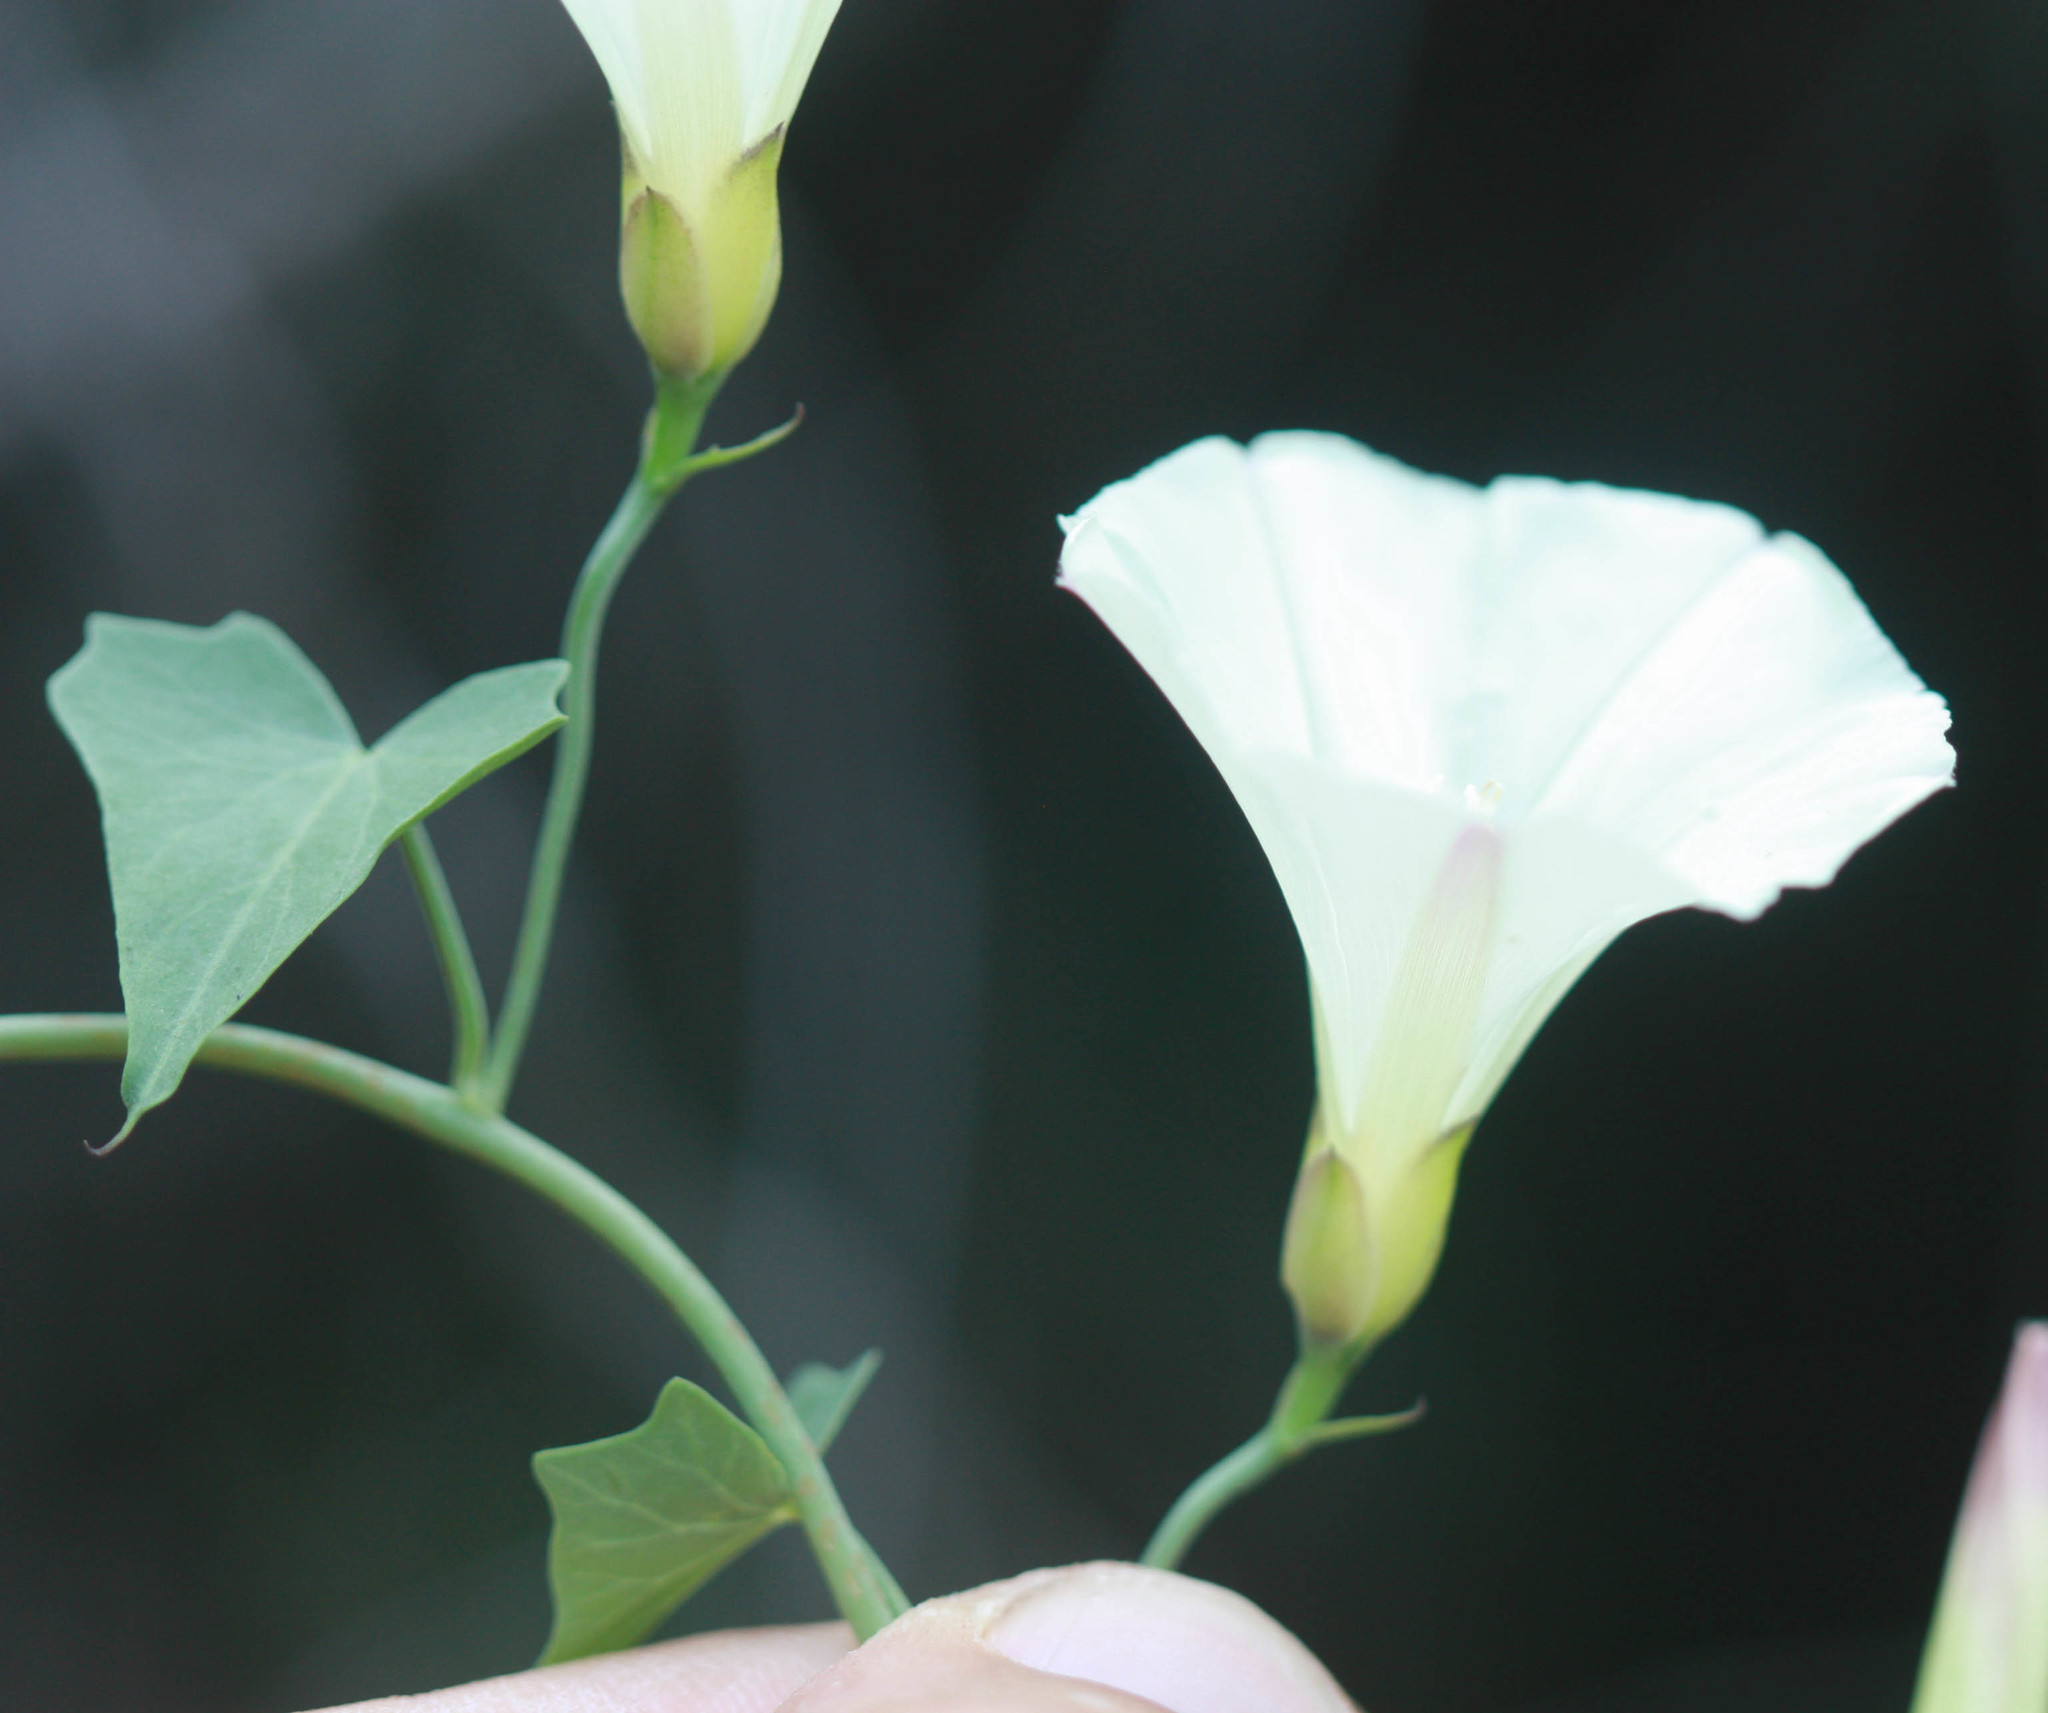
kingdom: Plantae
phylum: Tracheophyta
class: Magnoliopsida
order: Solanales
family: Convolvulaceae
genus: Calystegia
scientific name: Calystegia purpurata
